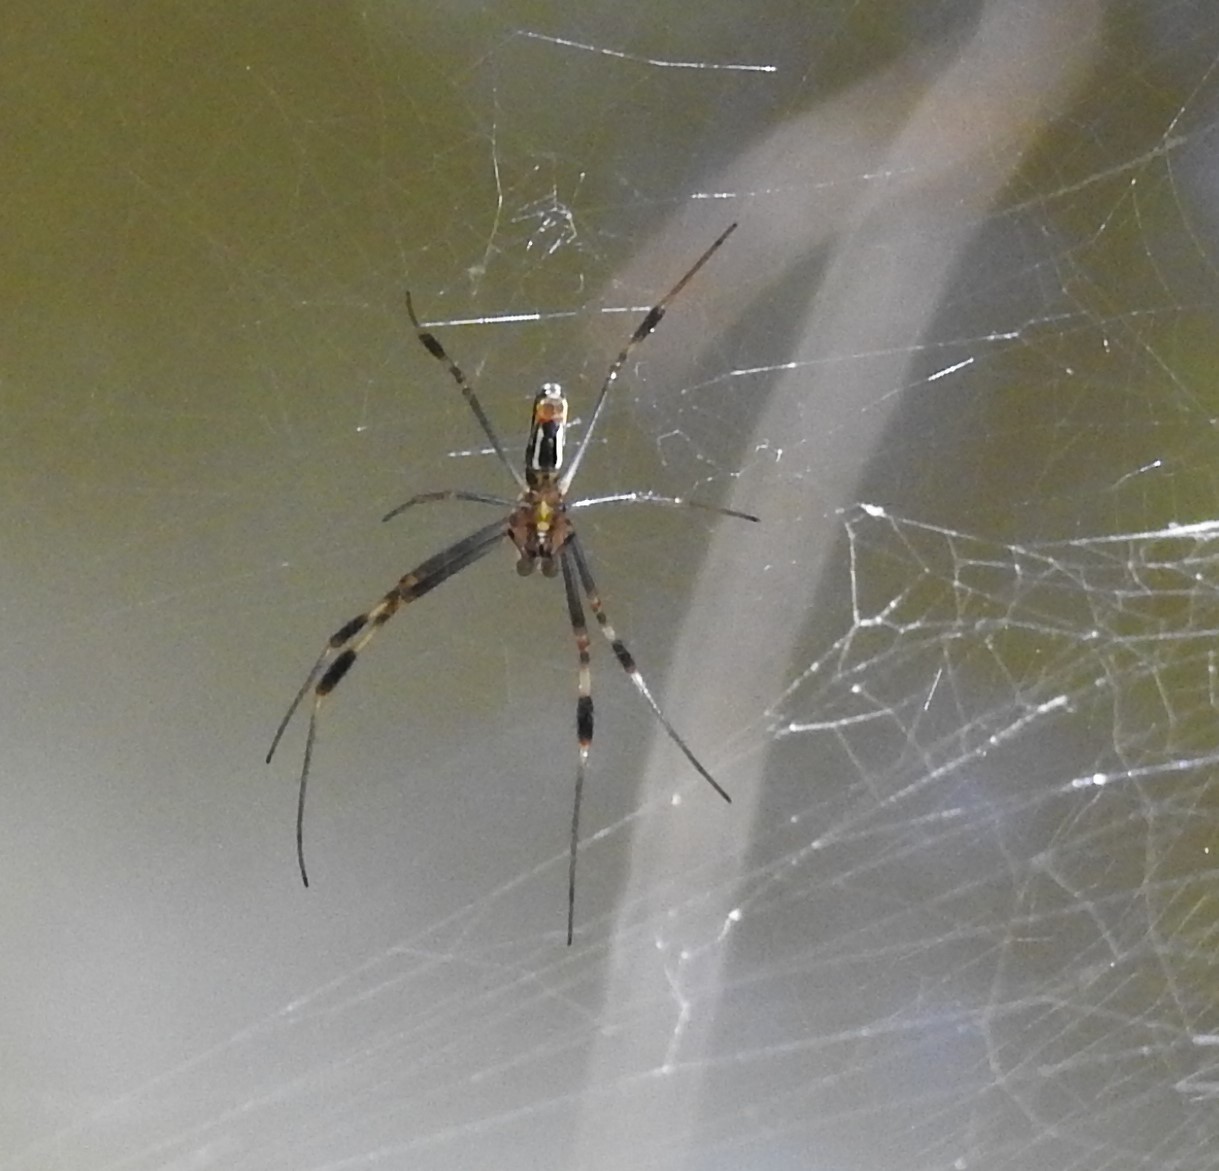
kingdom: Animalia
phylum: Arthropoda
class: Arachnida
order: Araneae
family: Araneidae
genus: Trichonephila
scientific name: Trichonephila clavipes
